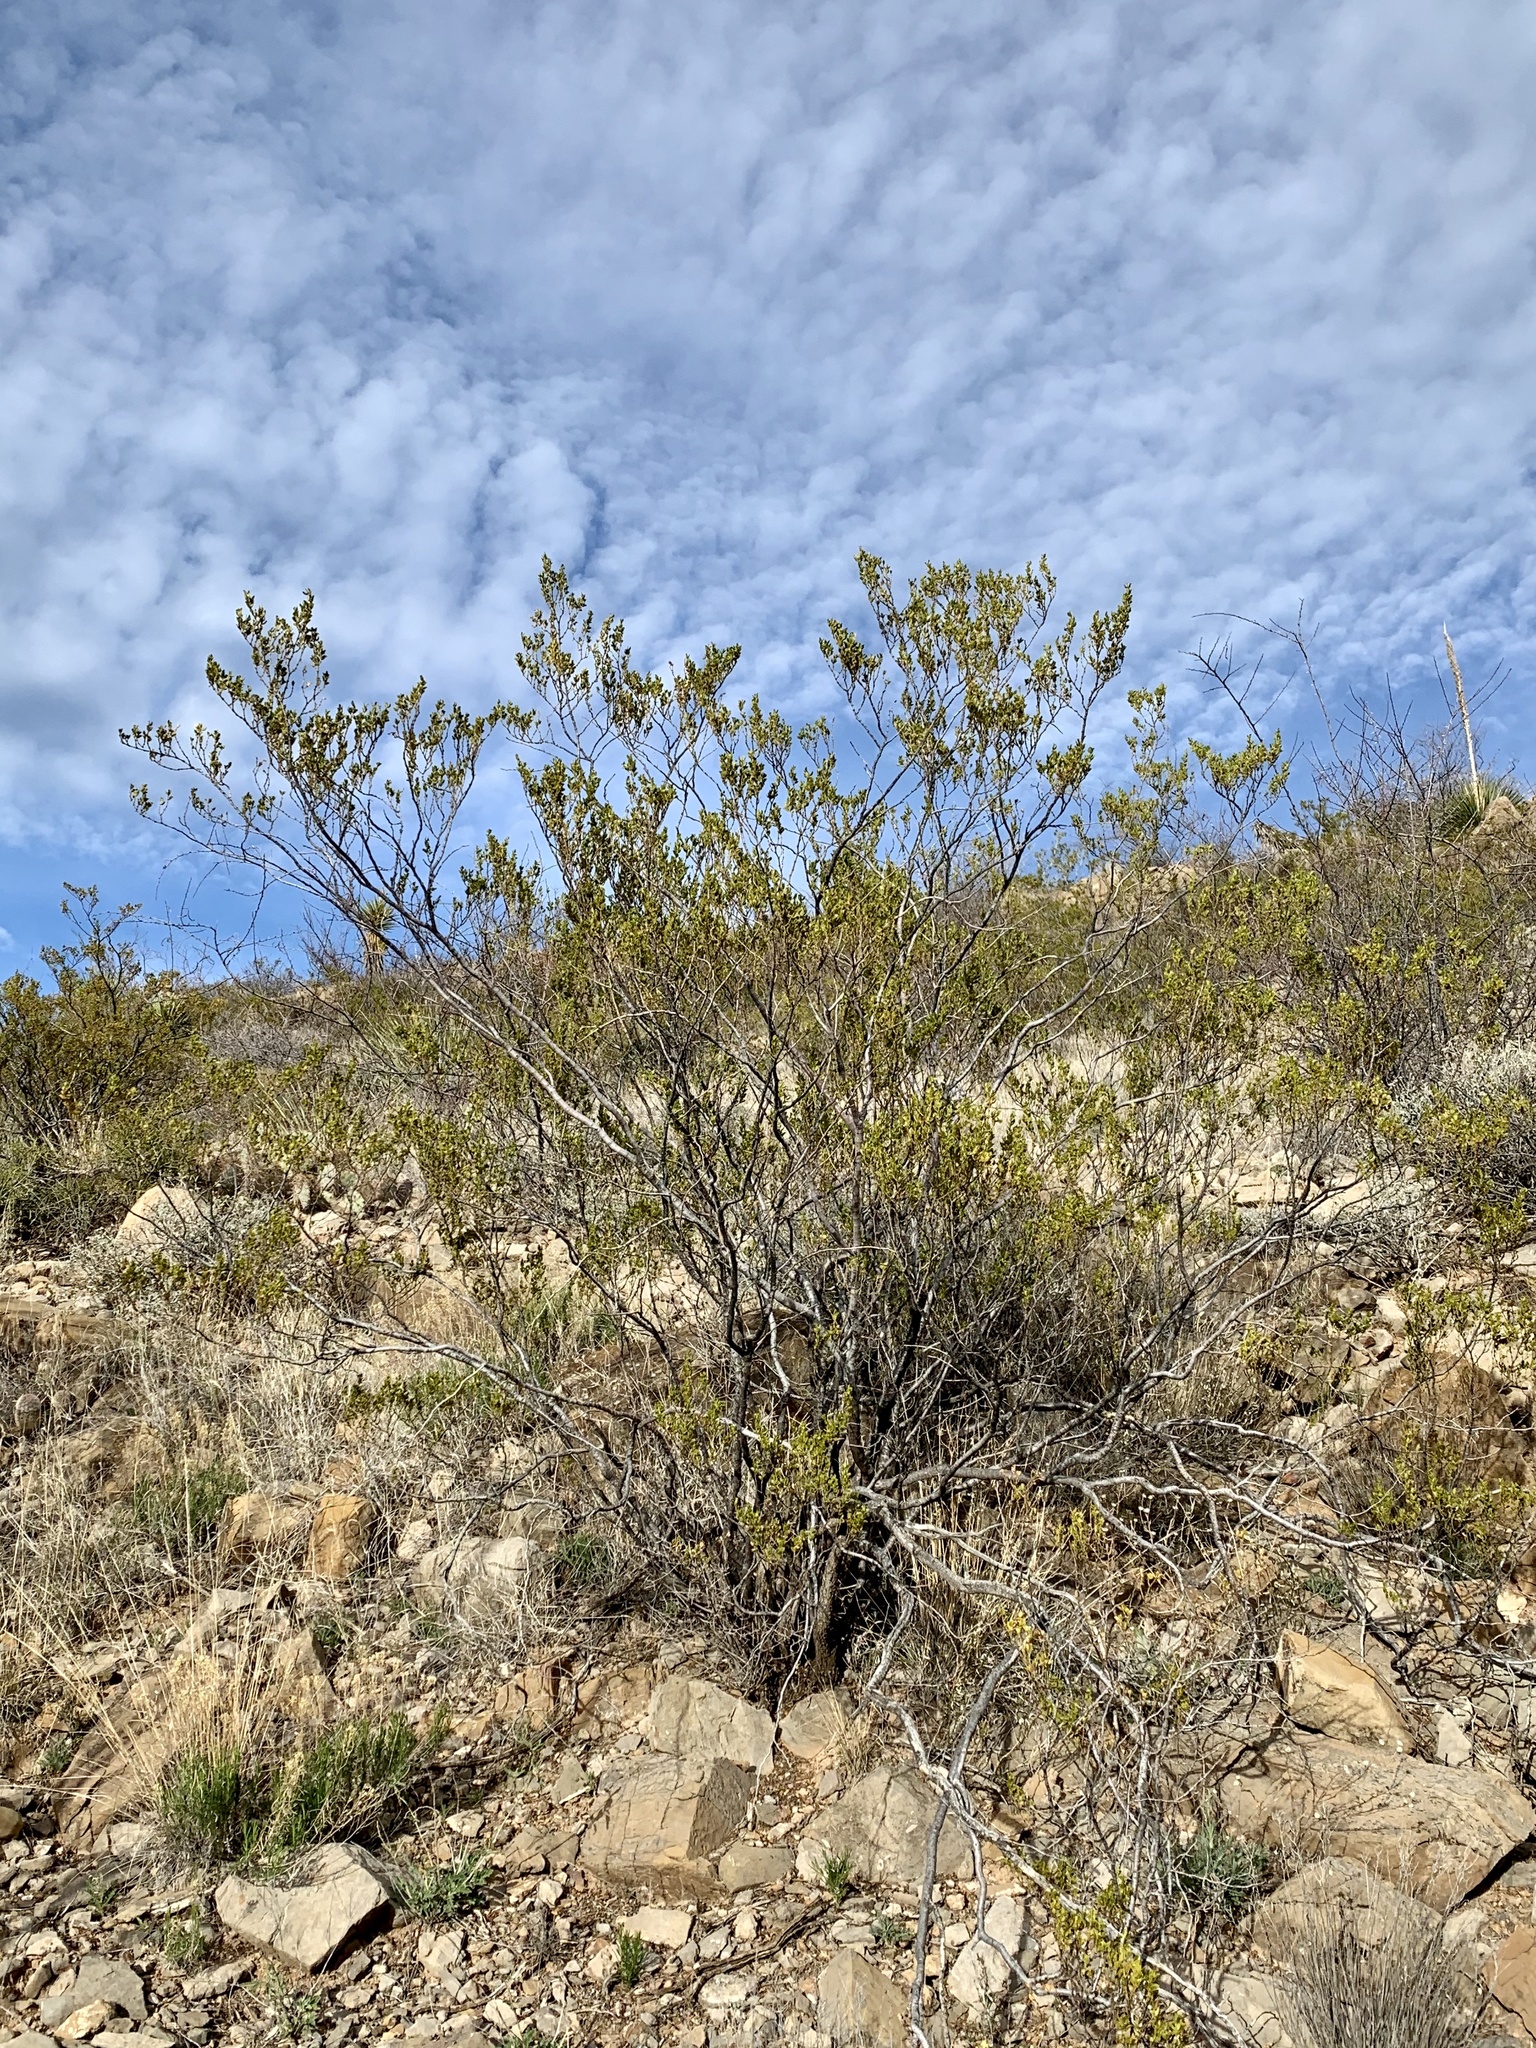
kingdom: Plantae
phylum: Tracheophyta
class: Magnoliopsida
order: Zygophyllales
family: Zygophyllaceae
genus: Larrea
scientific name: Larrea tridentata
